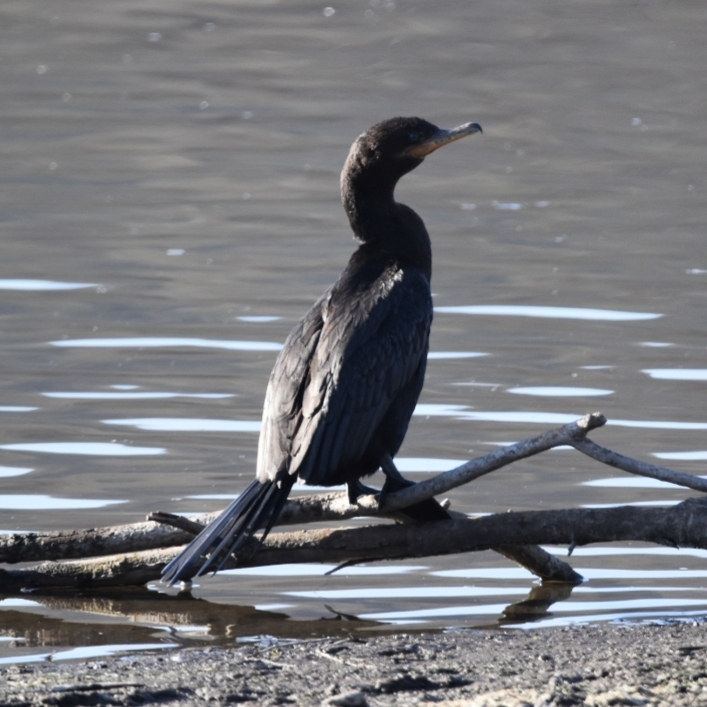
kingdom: Animalia
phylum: Chordata
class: Aves
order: Suliformes
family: Phalacrocoracidae
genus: Phalacrocorax
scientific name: Phalacrocorax brasilianus
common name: Neotropic cormorant
